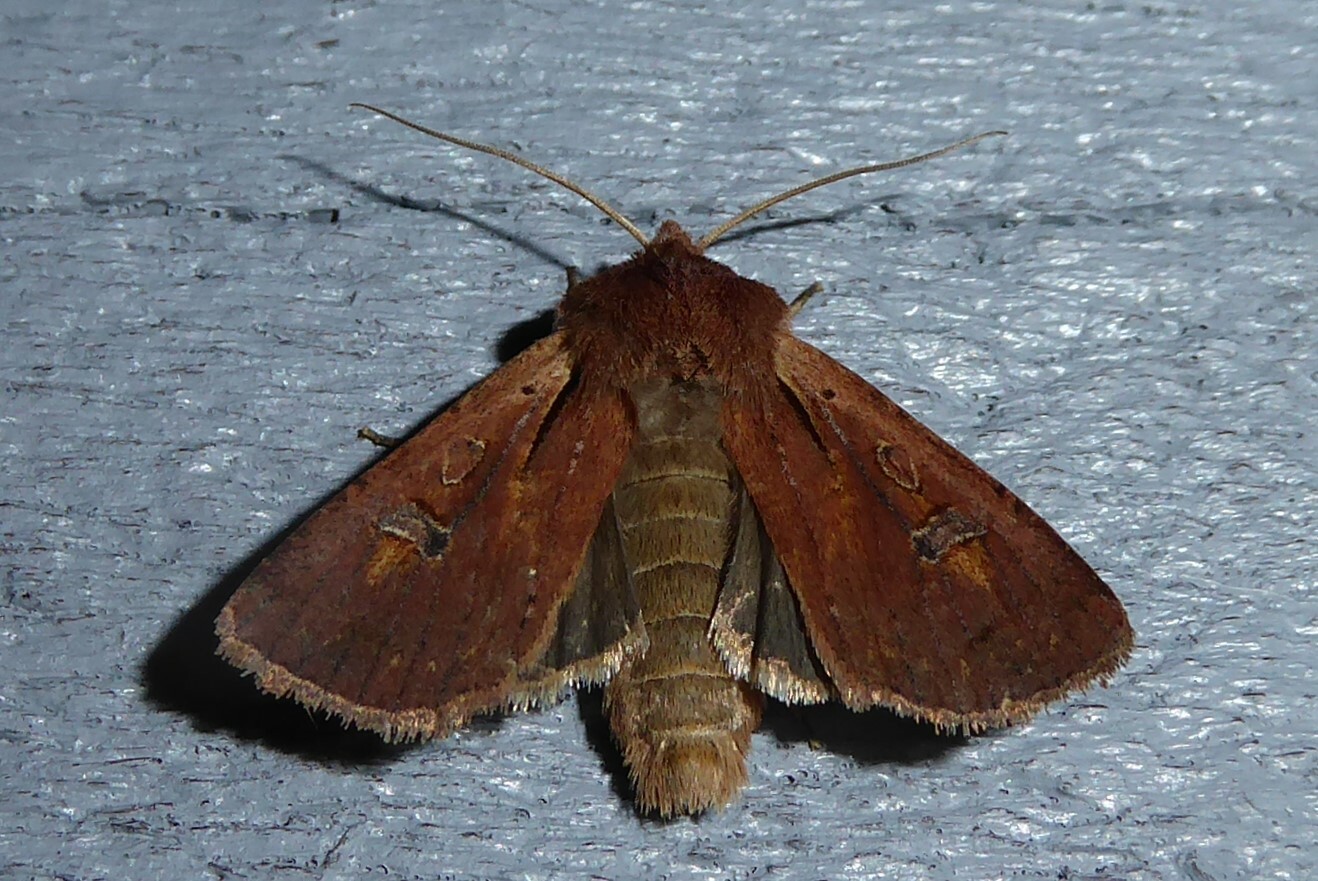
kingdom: Animalia
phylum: Arthropoda
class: Insecta
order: Lepidoptera
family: Noctuidae
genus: Ichneutica
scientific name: Ichneutica atristriga
